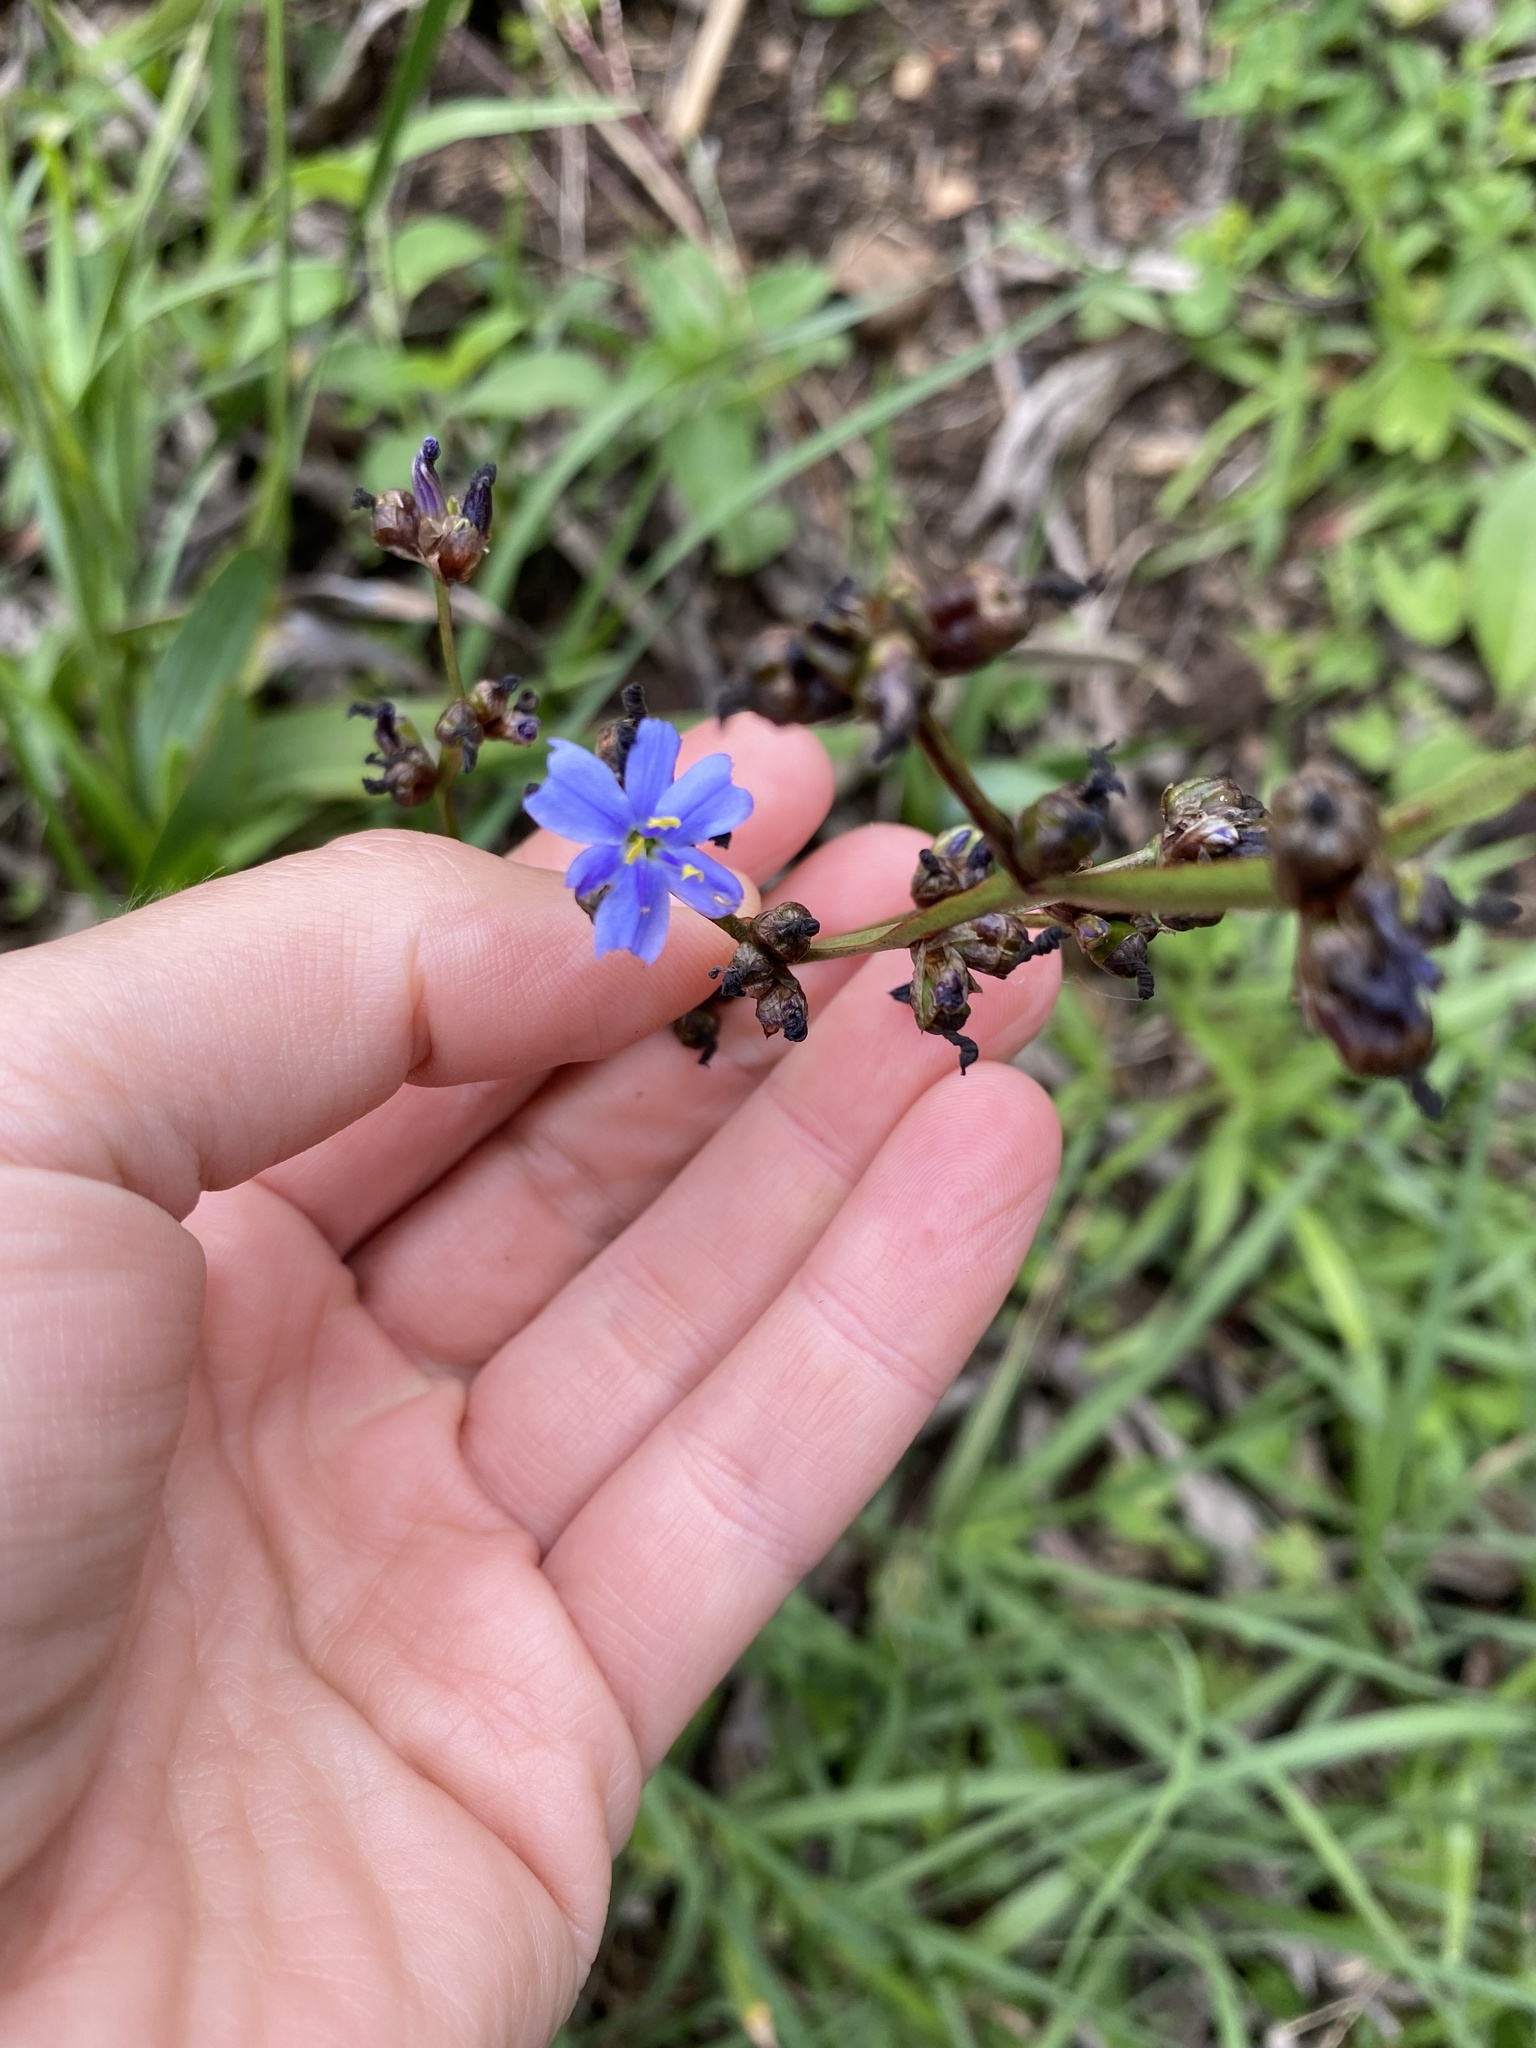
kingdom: Plantae
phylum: Tracheophyta
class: Liliopsida
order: Asparagales
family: Iridaceae
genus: Aristea
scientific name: Aristea ecklonii
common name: Blue corn-lily
